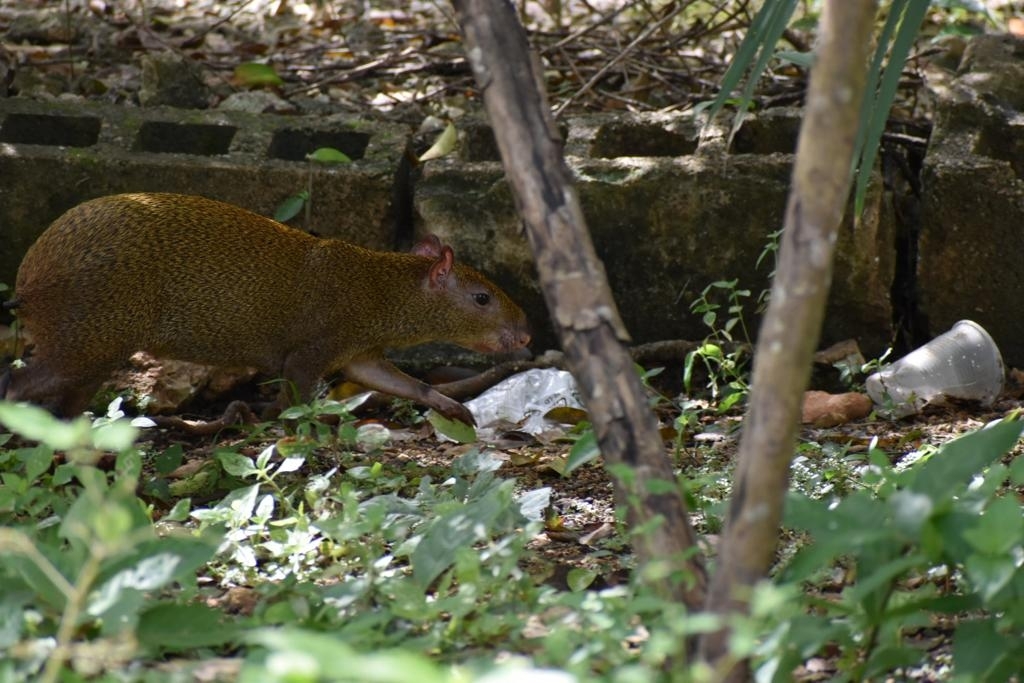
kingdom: Animalia
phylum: Chordata
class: Mammalia
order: Rodentia
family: Dasyproctidae
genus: Dasyprocta
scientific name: Dasyprocta punctata
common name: Central american agouti
